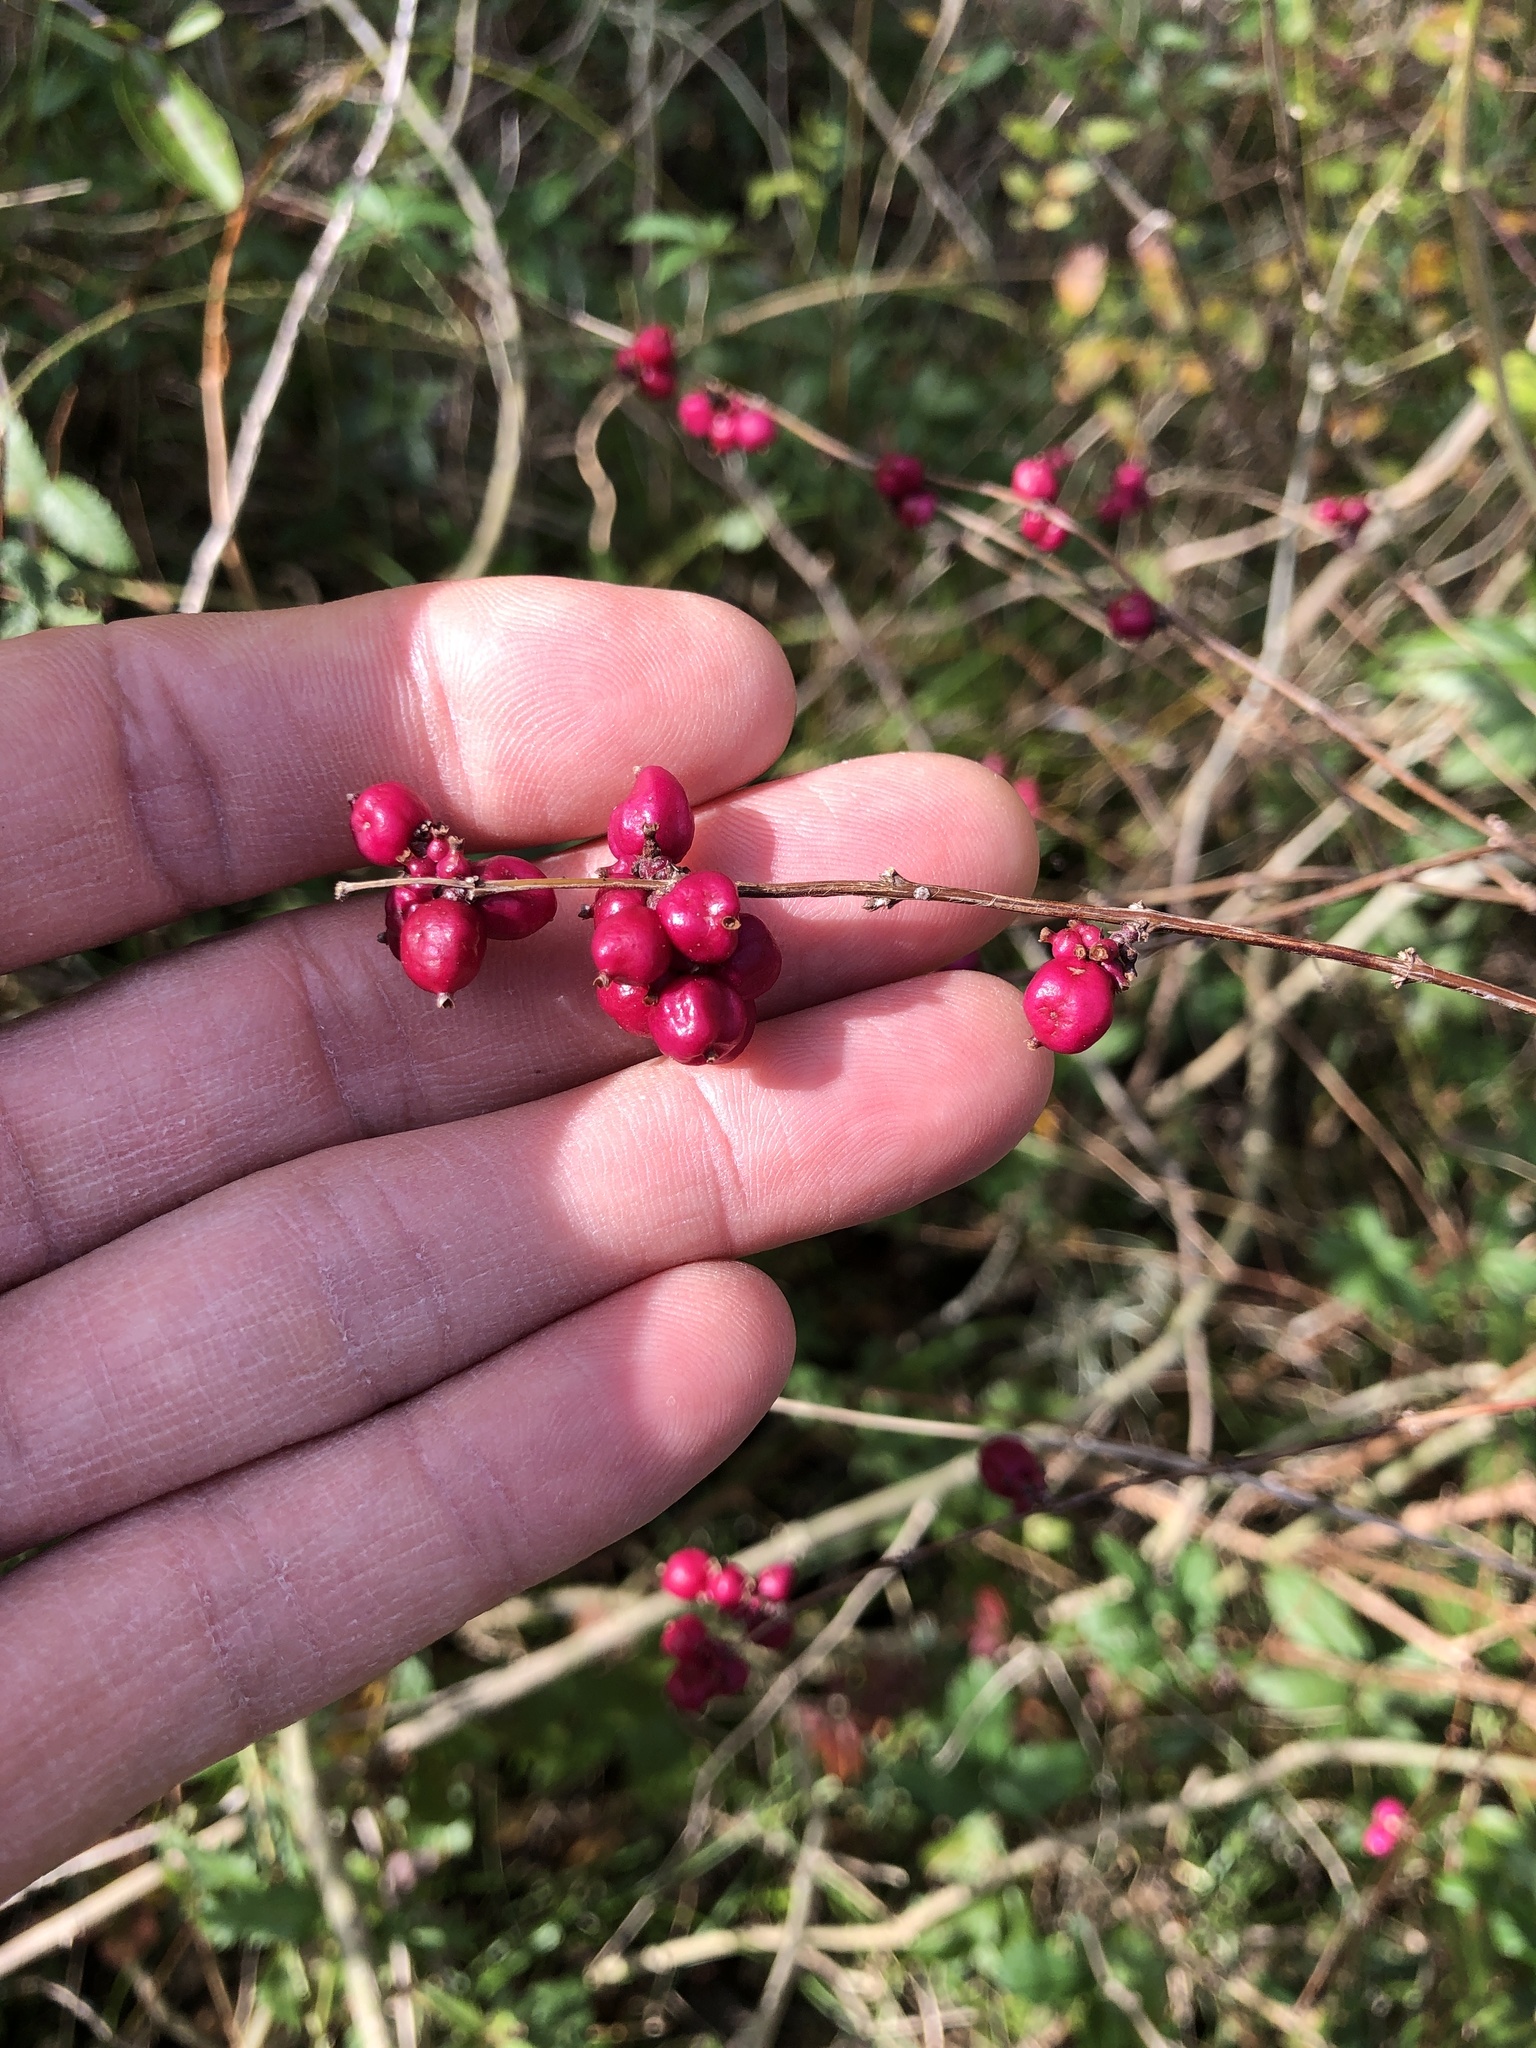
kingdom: Plantae
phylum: Tracheophyta
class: Magnoliopsida
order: Dipsacales
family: Caprifoliaceae
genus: Symphoricarpos
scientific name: Symphoricarpos orbiculatus
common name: Coralberry
